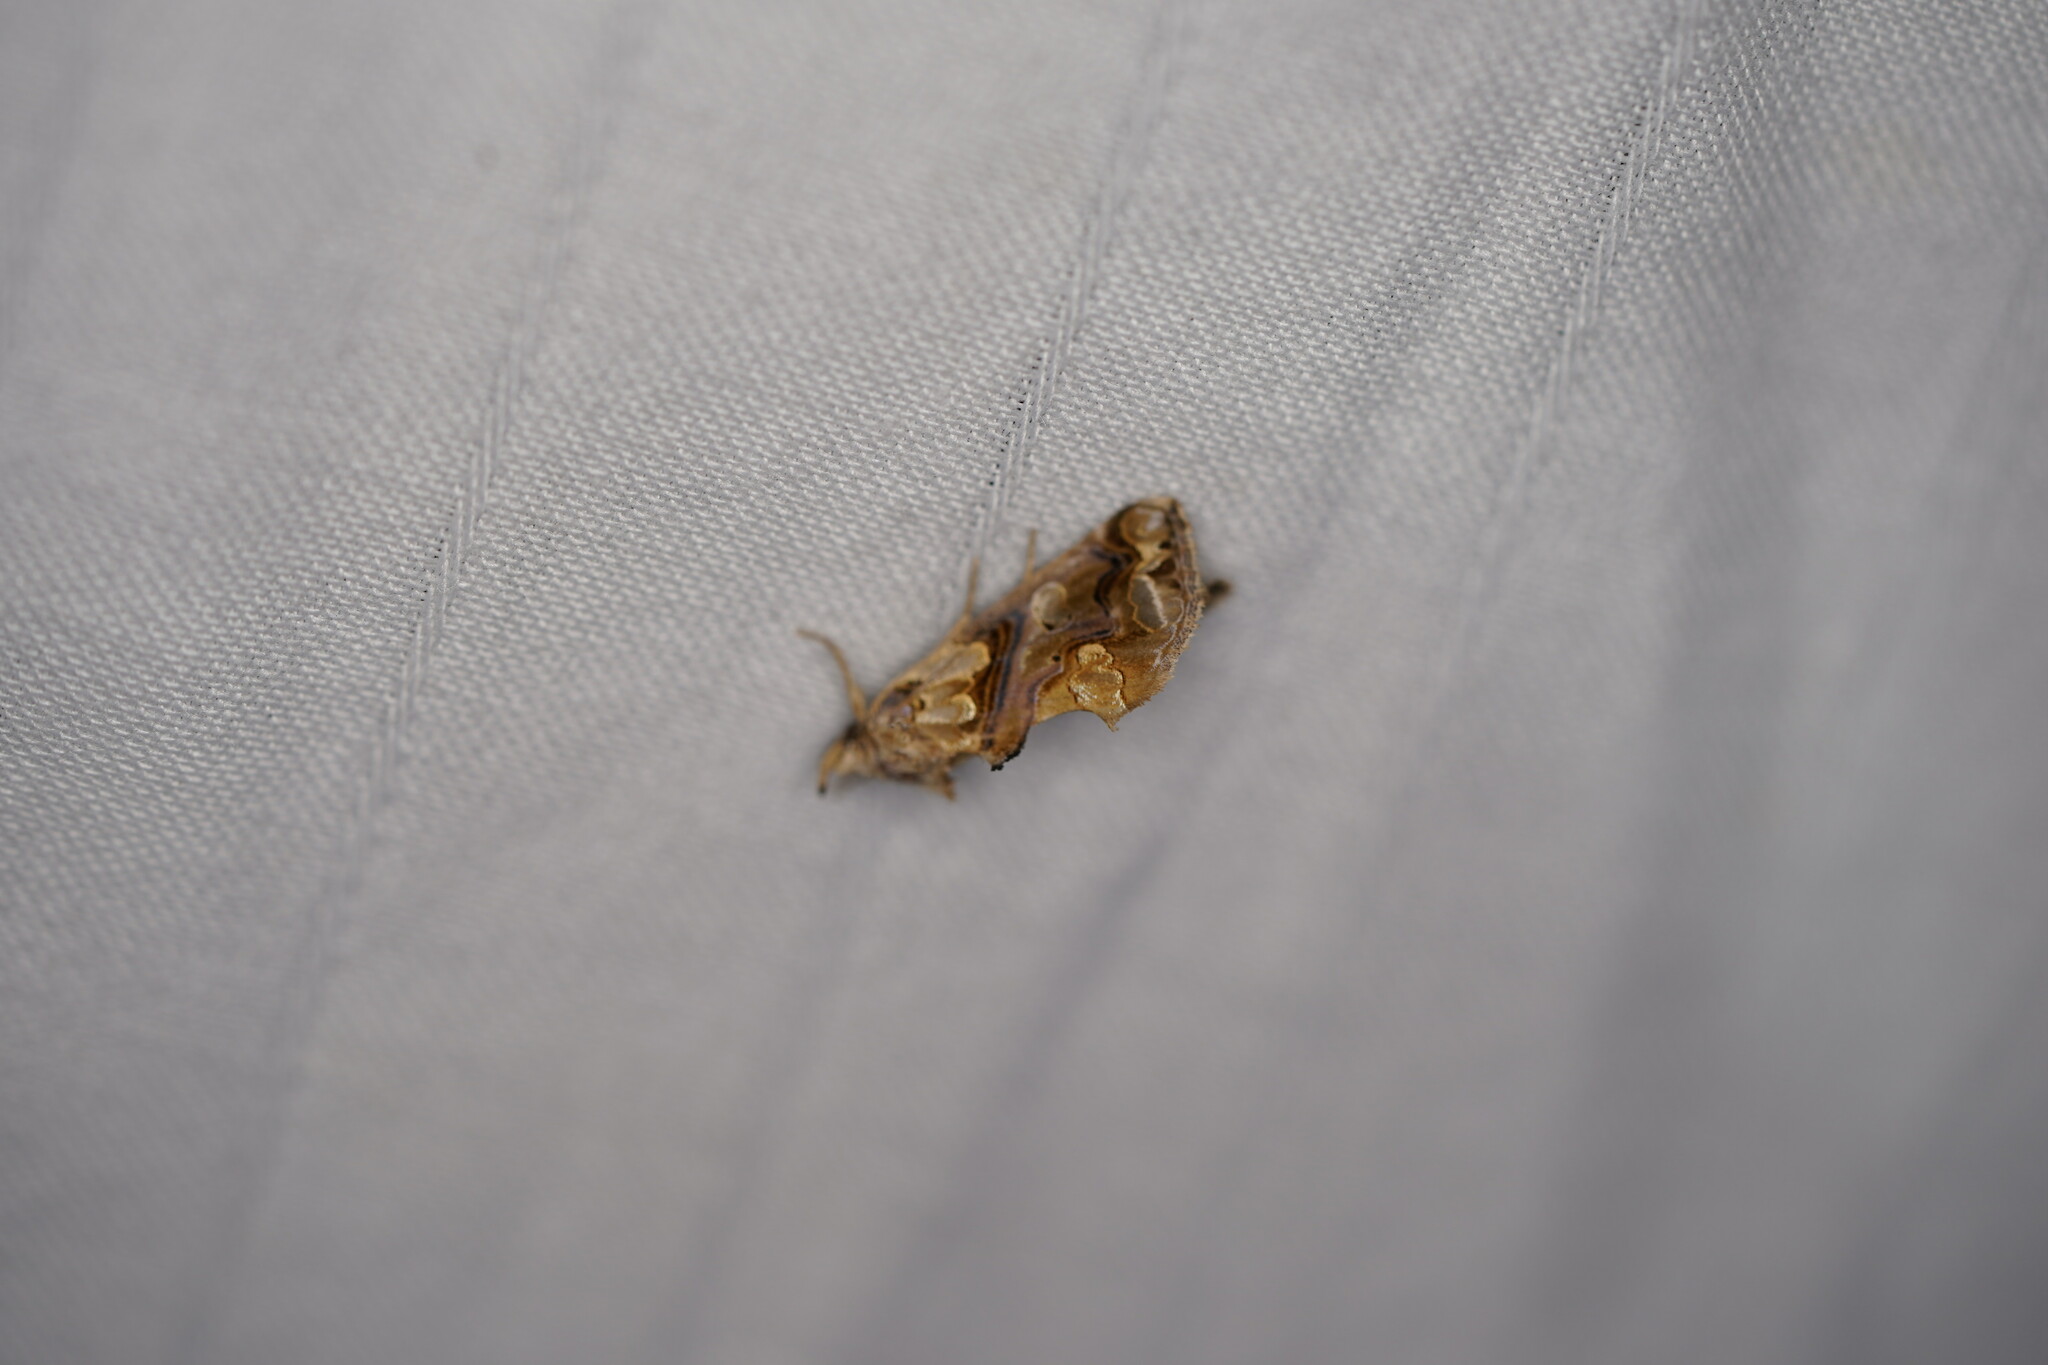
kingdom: Animalia
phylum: Arthropoda
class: Insecta
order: Lepidoptera
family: Erebidae
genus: Plusiodonta
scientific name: Plusiodonta compressipalpis
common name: Moonseed moth
